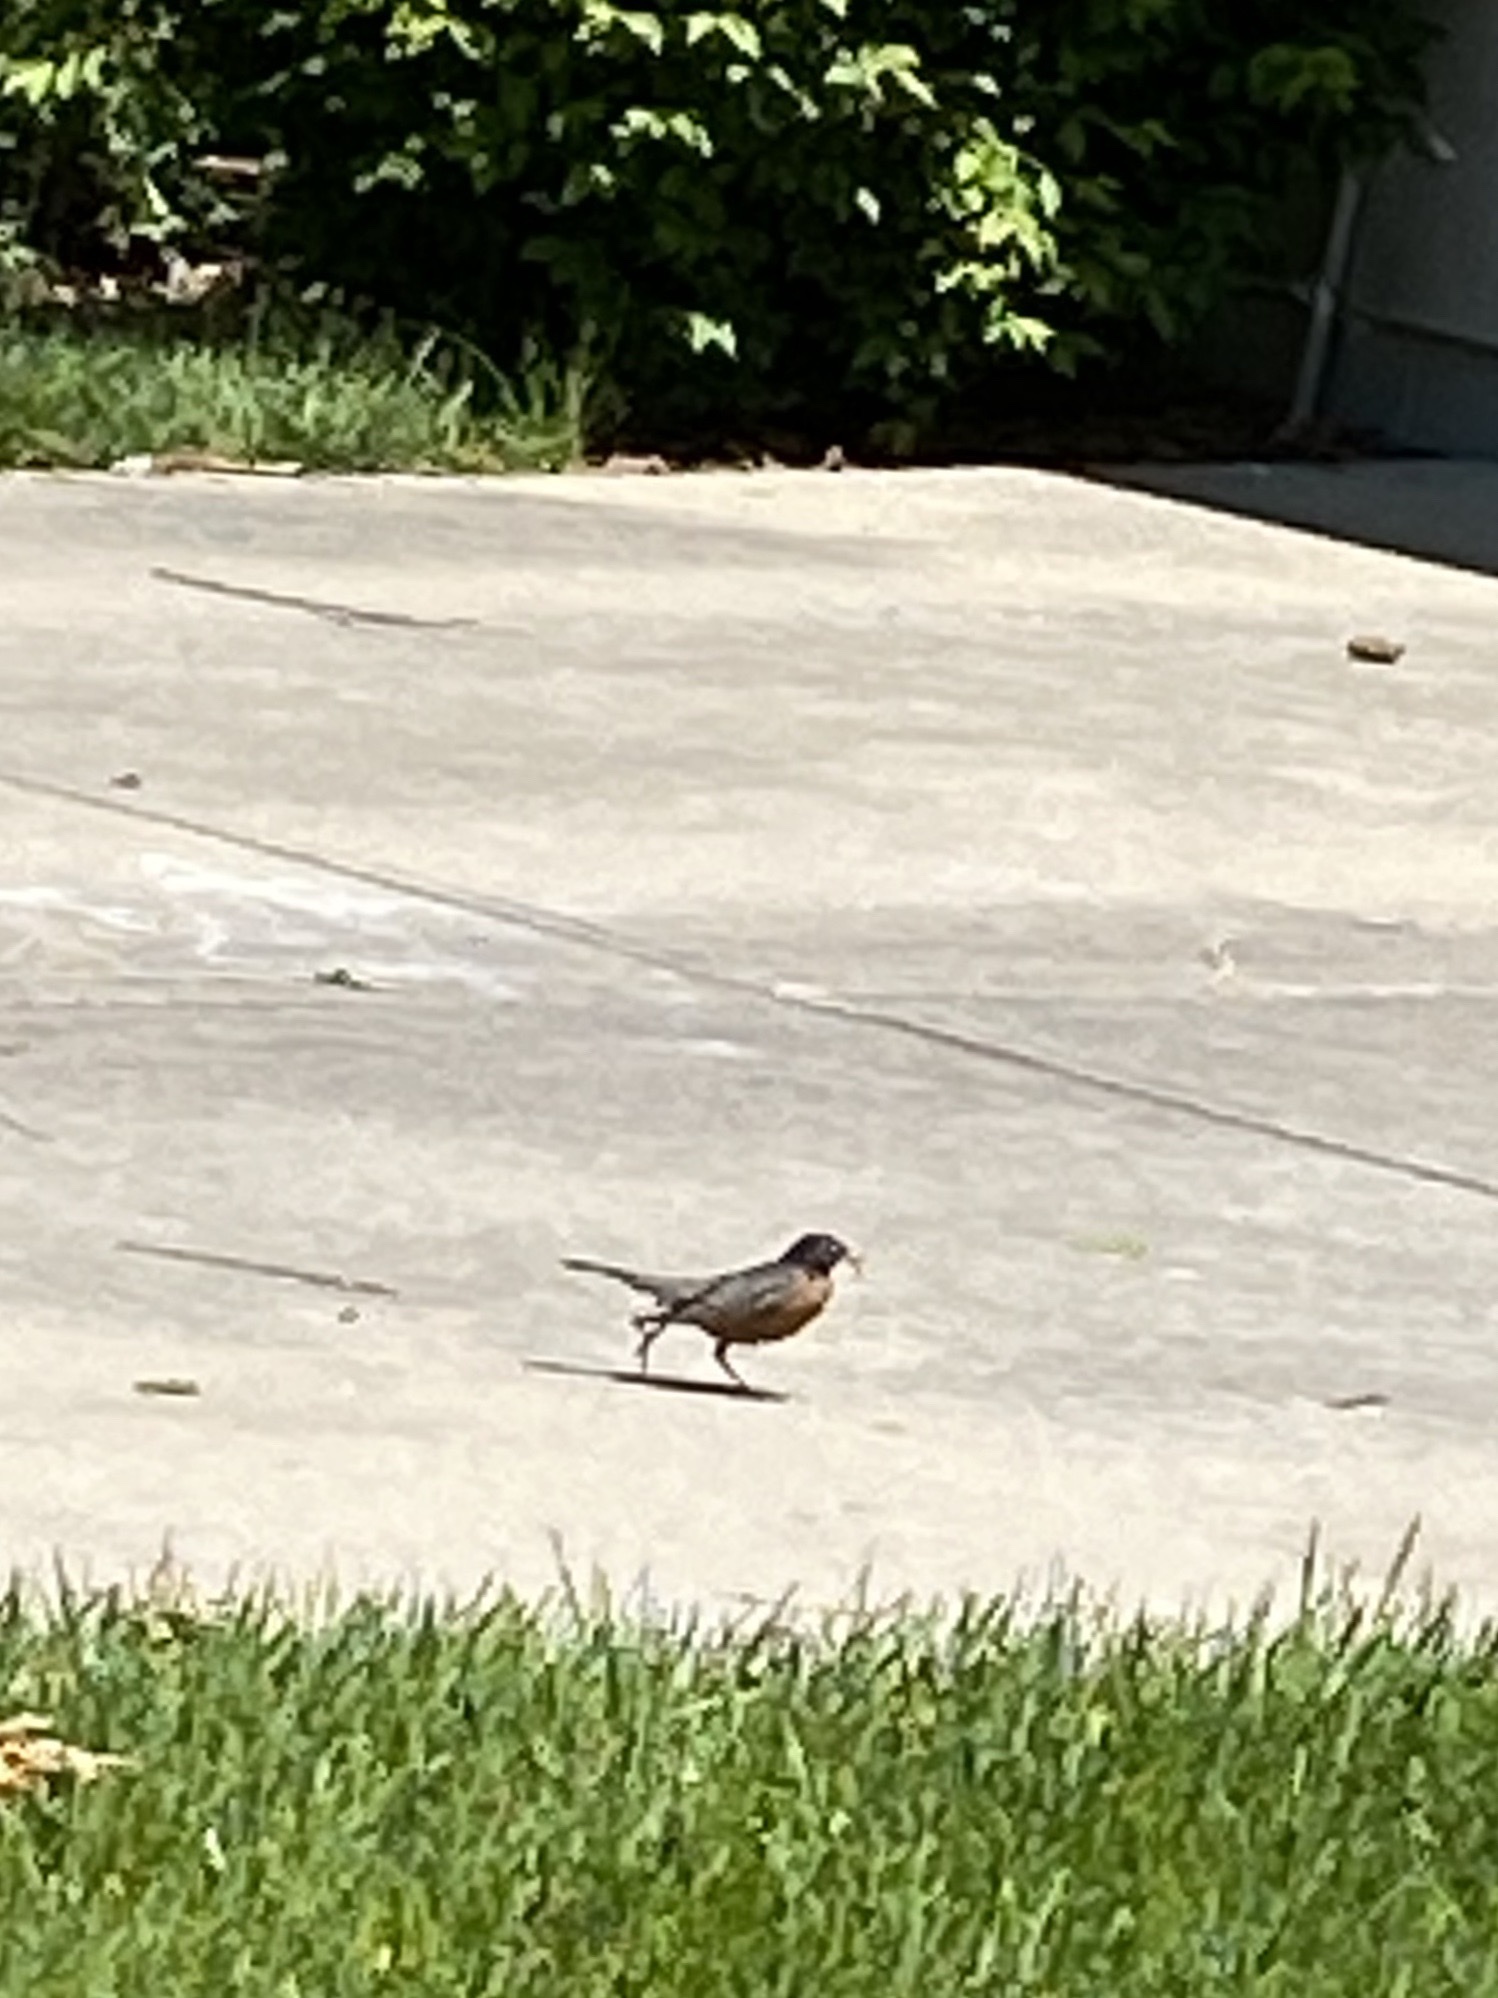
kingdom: Animalia
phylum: Chordata
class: Aves
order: Passeriformes
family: Turdidae
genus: Turdus
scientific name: Turdus migratorius
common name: American robin
